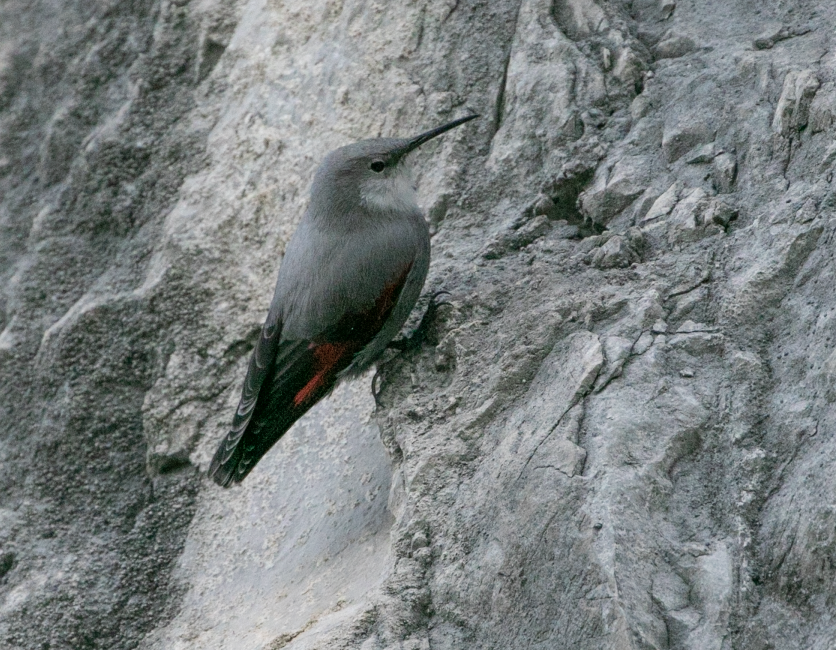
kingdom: Animalia
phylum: Chordata
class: Aves
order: Passeriformes
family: Tichodromidae
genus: Tichodroma
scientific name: Tichodroma muraria
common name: Wallcreeper
